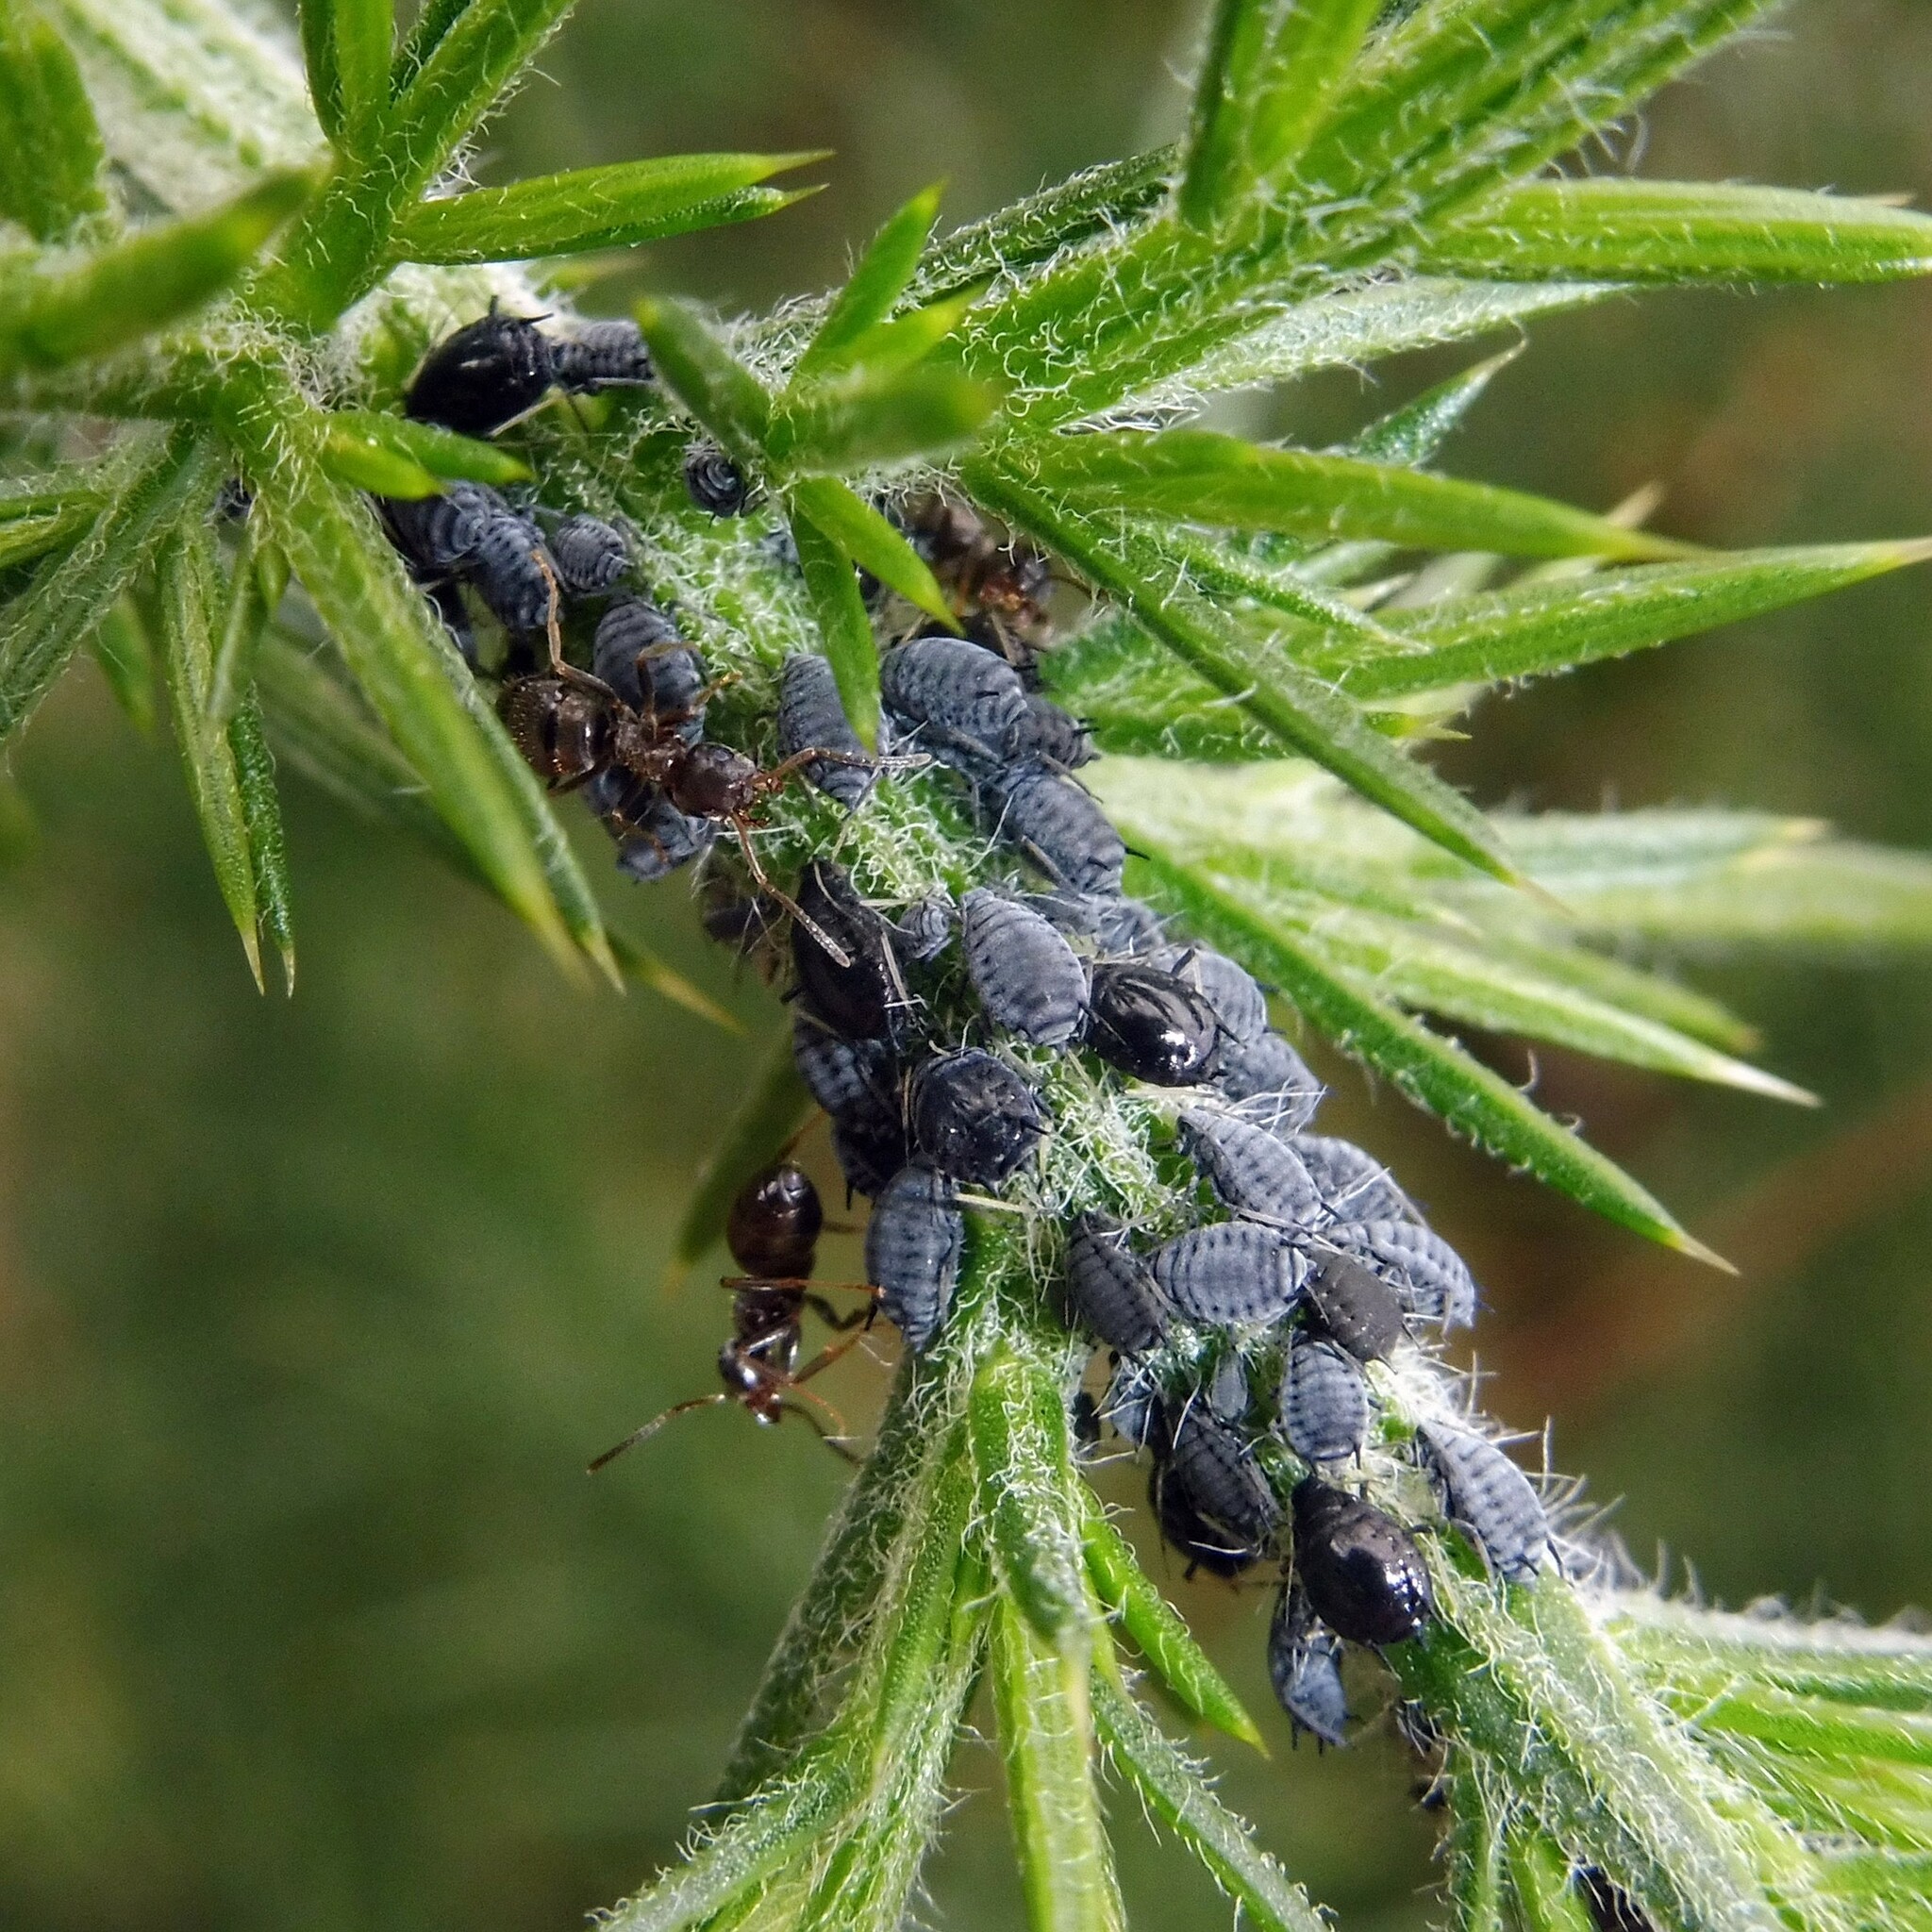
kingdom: Animalia
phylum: Arthropoda
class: Insecta
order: Hemiptera
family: Aphididae
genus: Aphis
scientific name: Aphis ulicis
